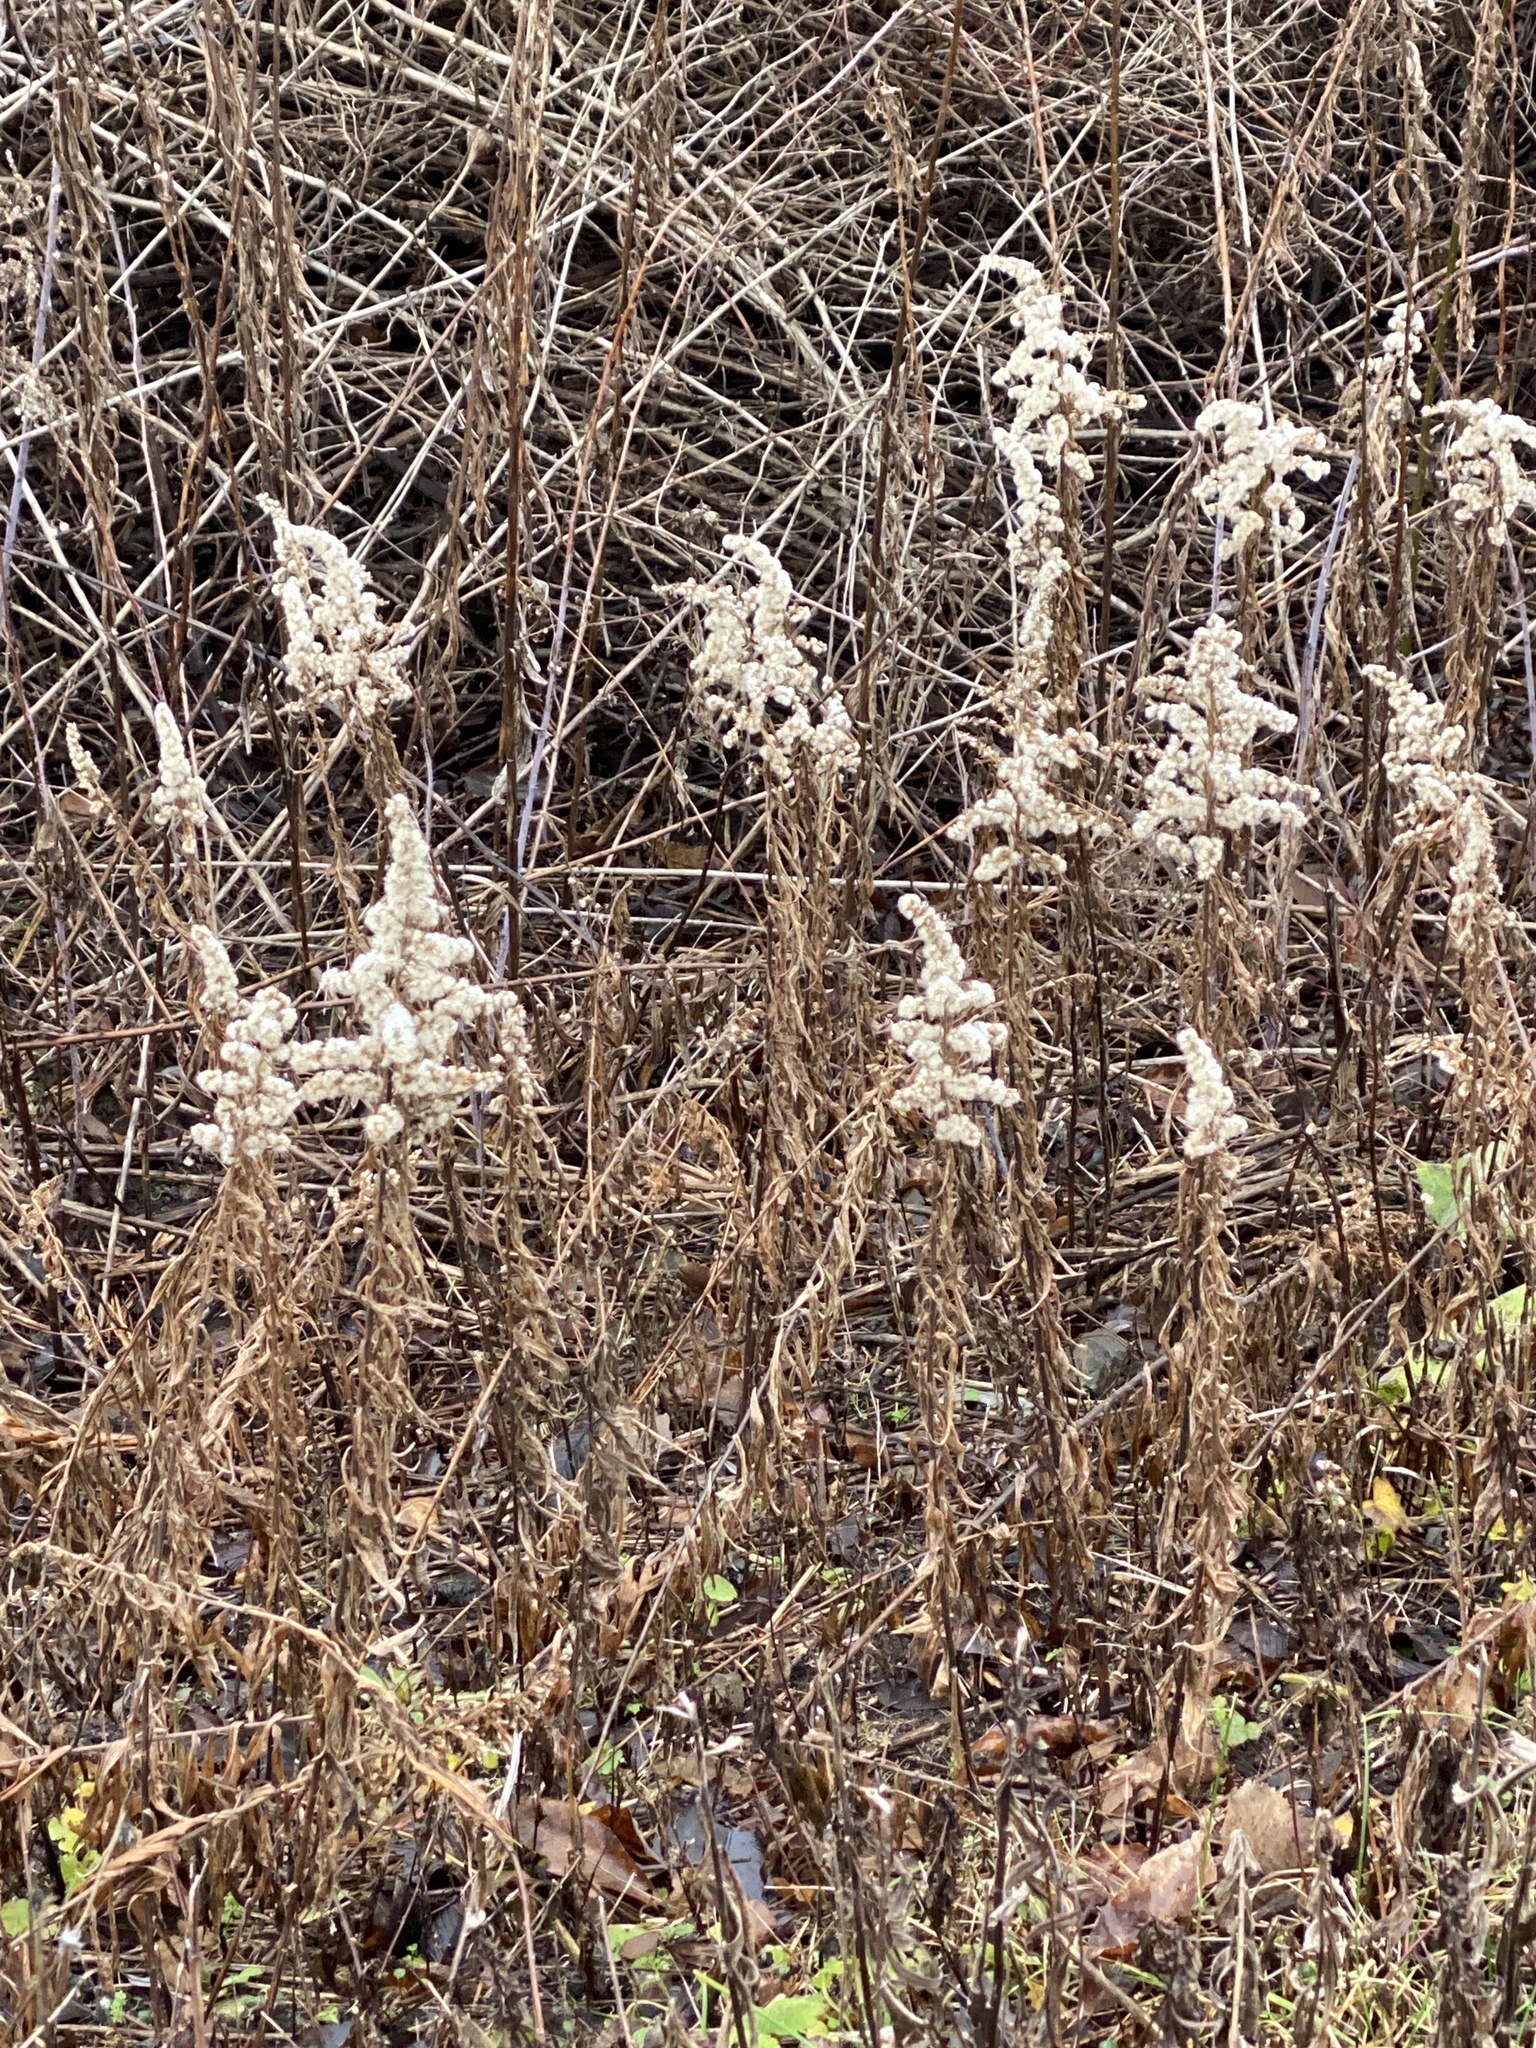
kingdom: Plantae
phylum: Tracheophyta
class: Magnoliopsida
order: Asterales
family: Asteraceae
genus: Solidago
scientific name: Solidago altissima
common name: Late goldenrod
